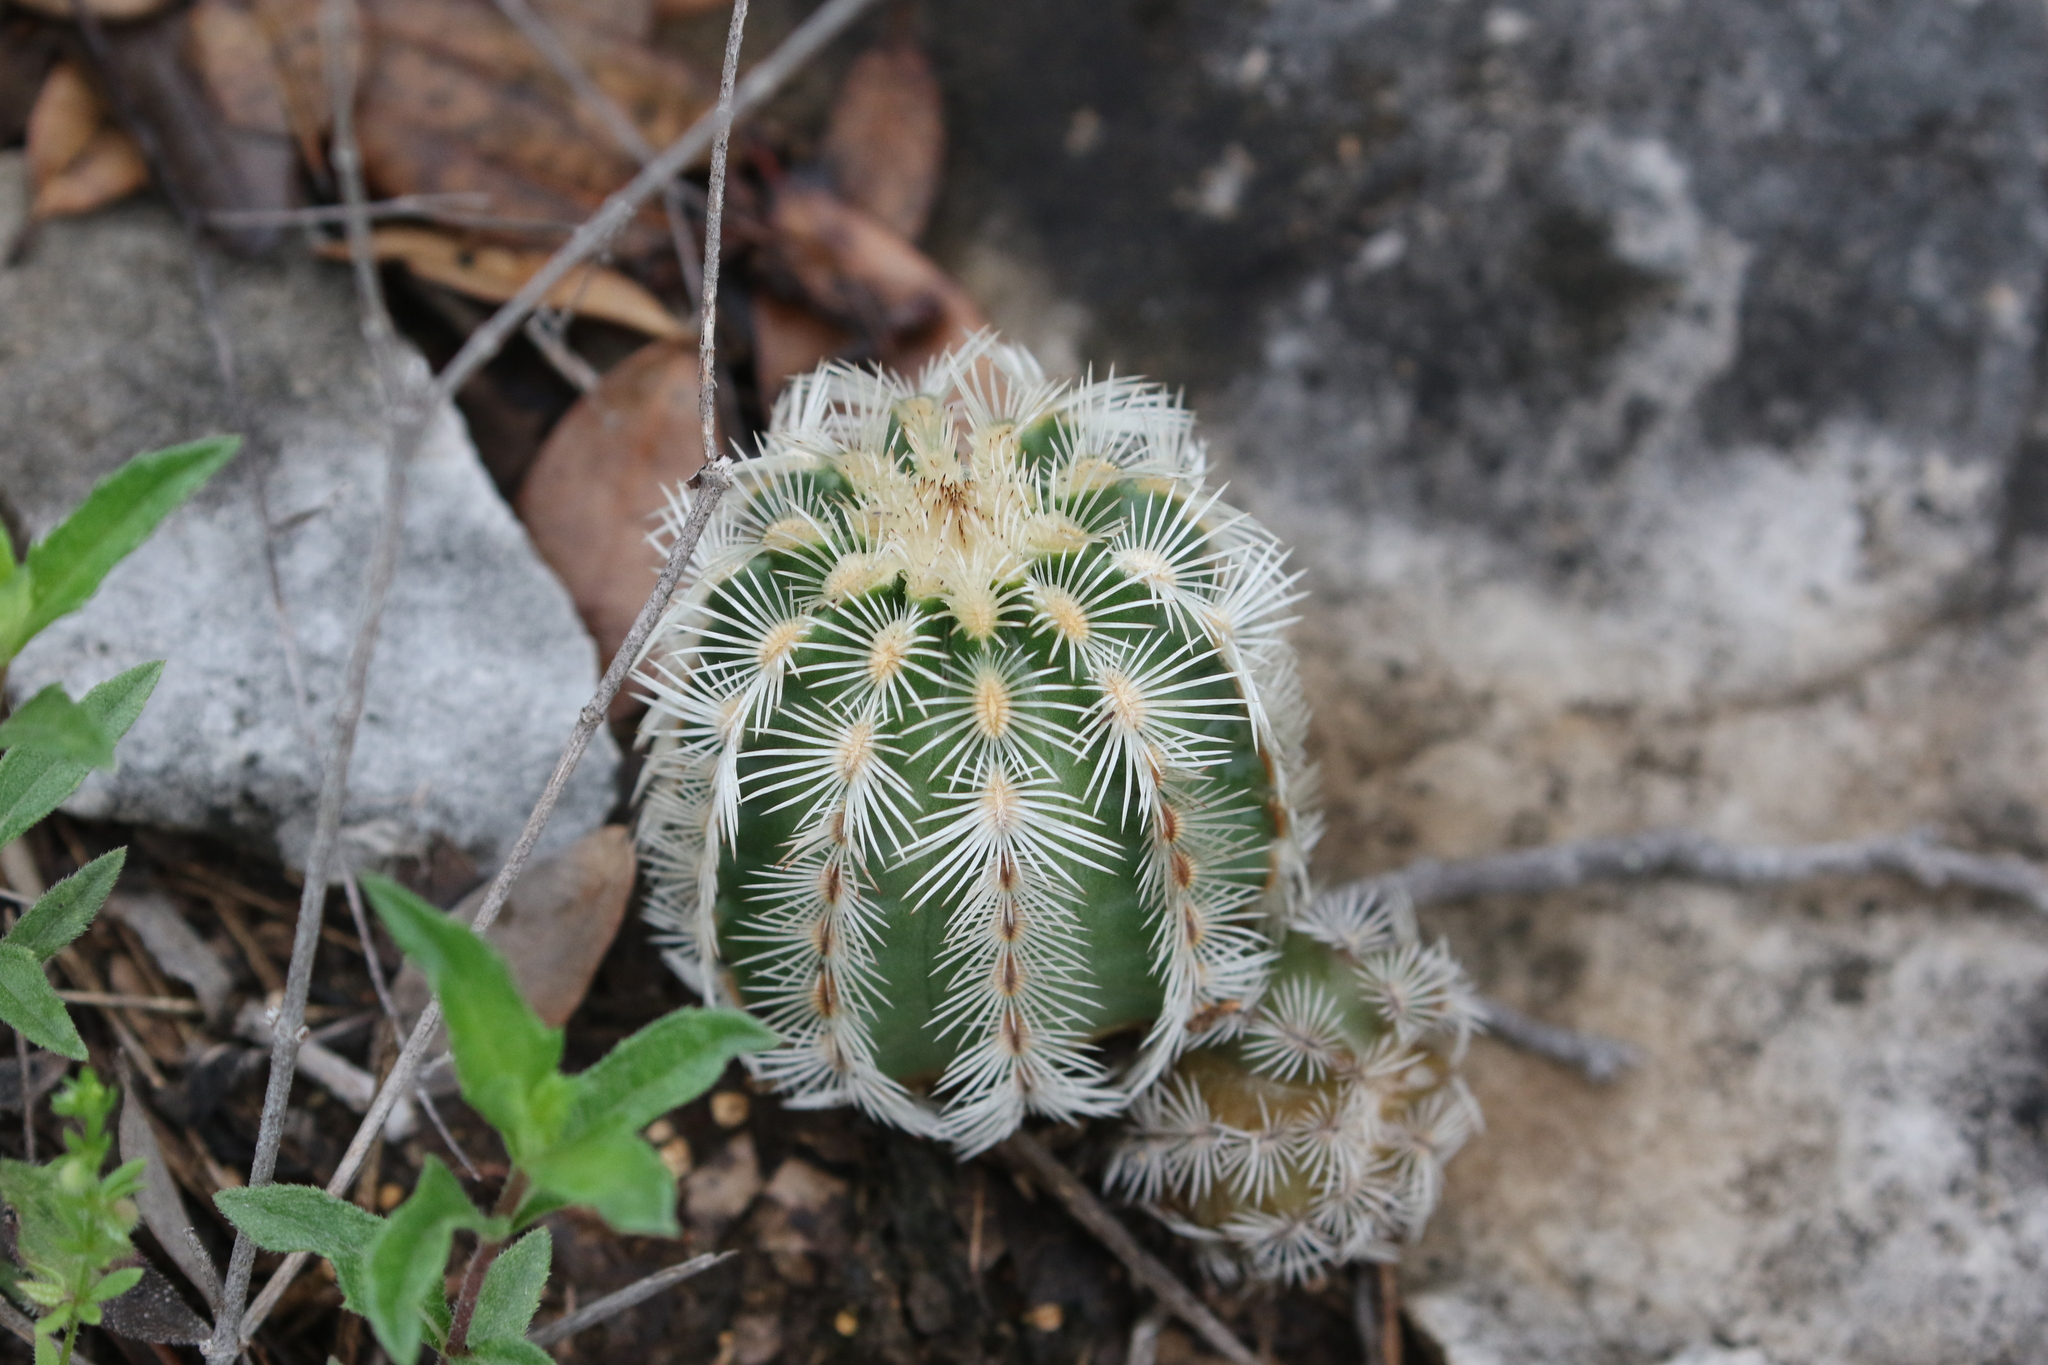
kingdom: Plantae
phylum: Tracheophyta
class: Magnoliopsida
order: Caryophyllales
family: Cactaceae
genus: Echinocereus
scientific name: Echinocereus reichenbachii
